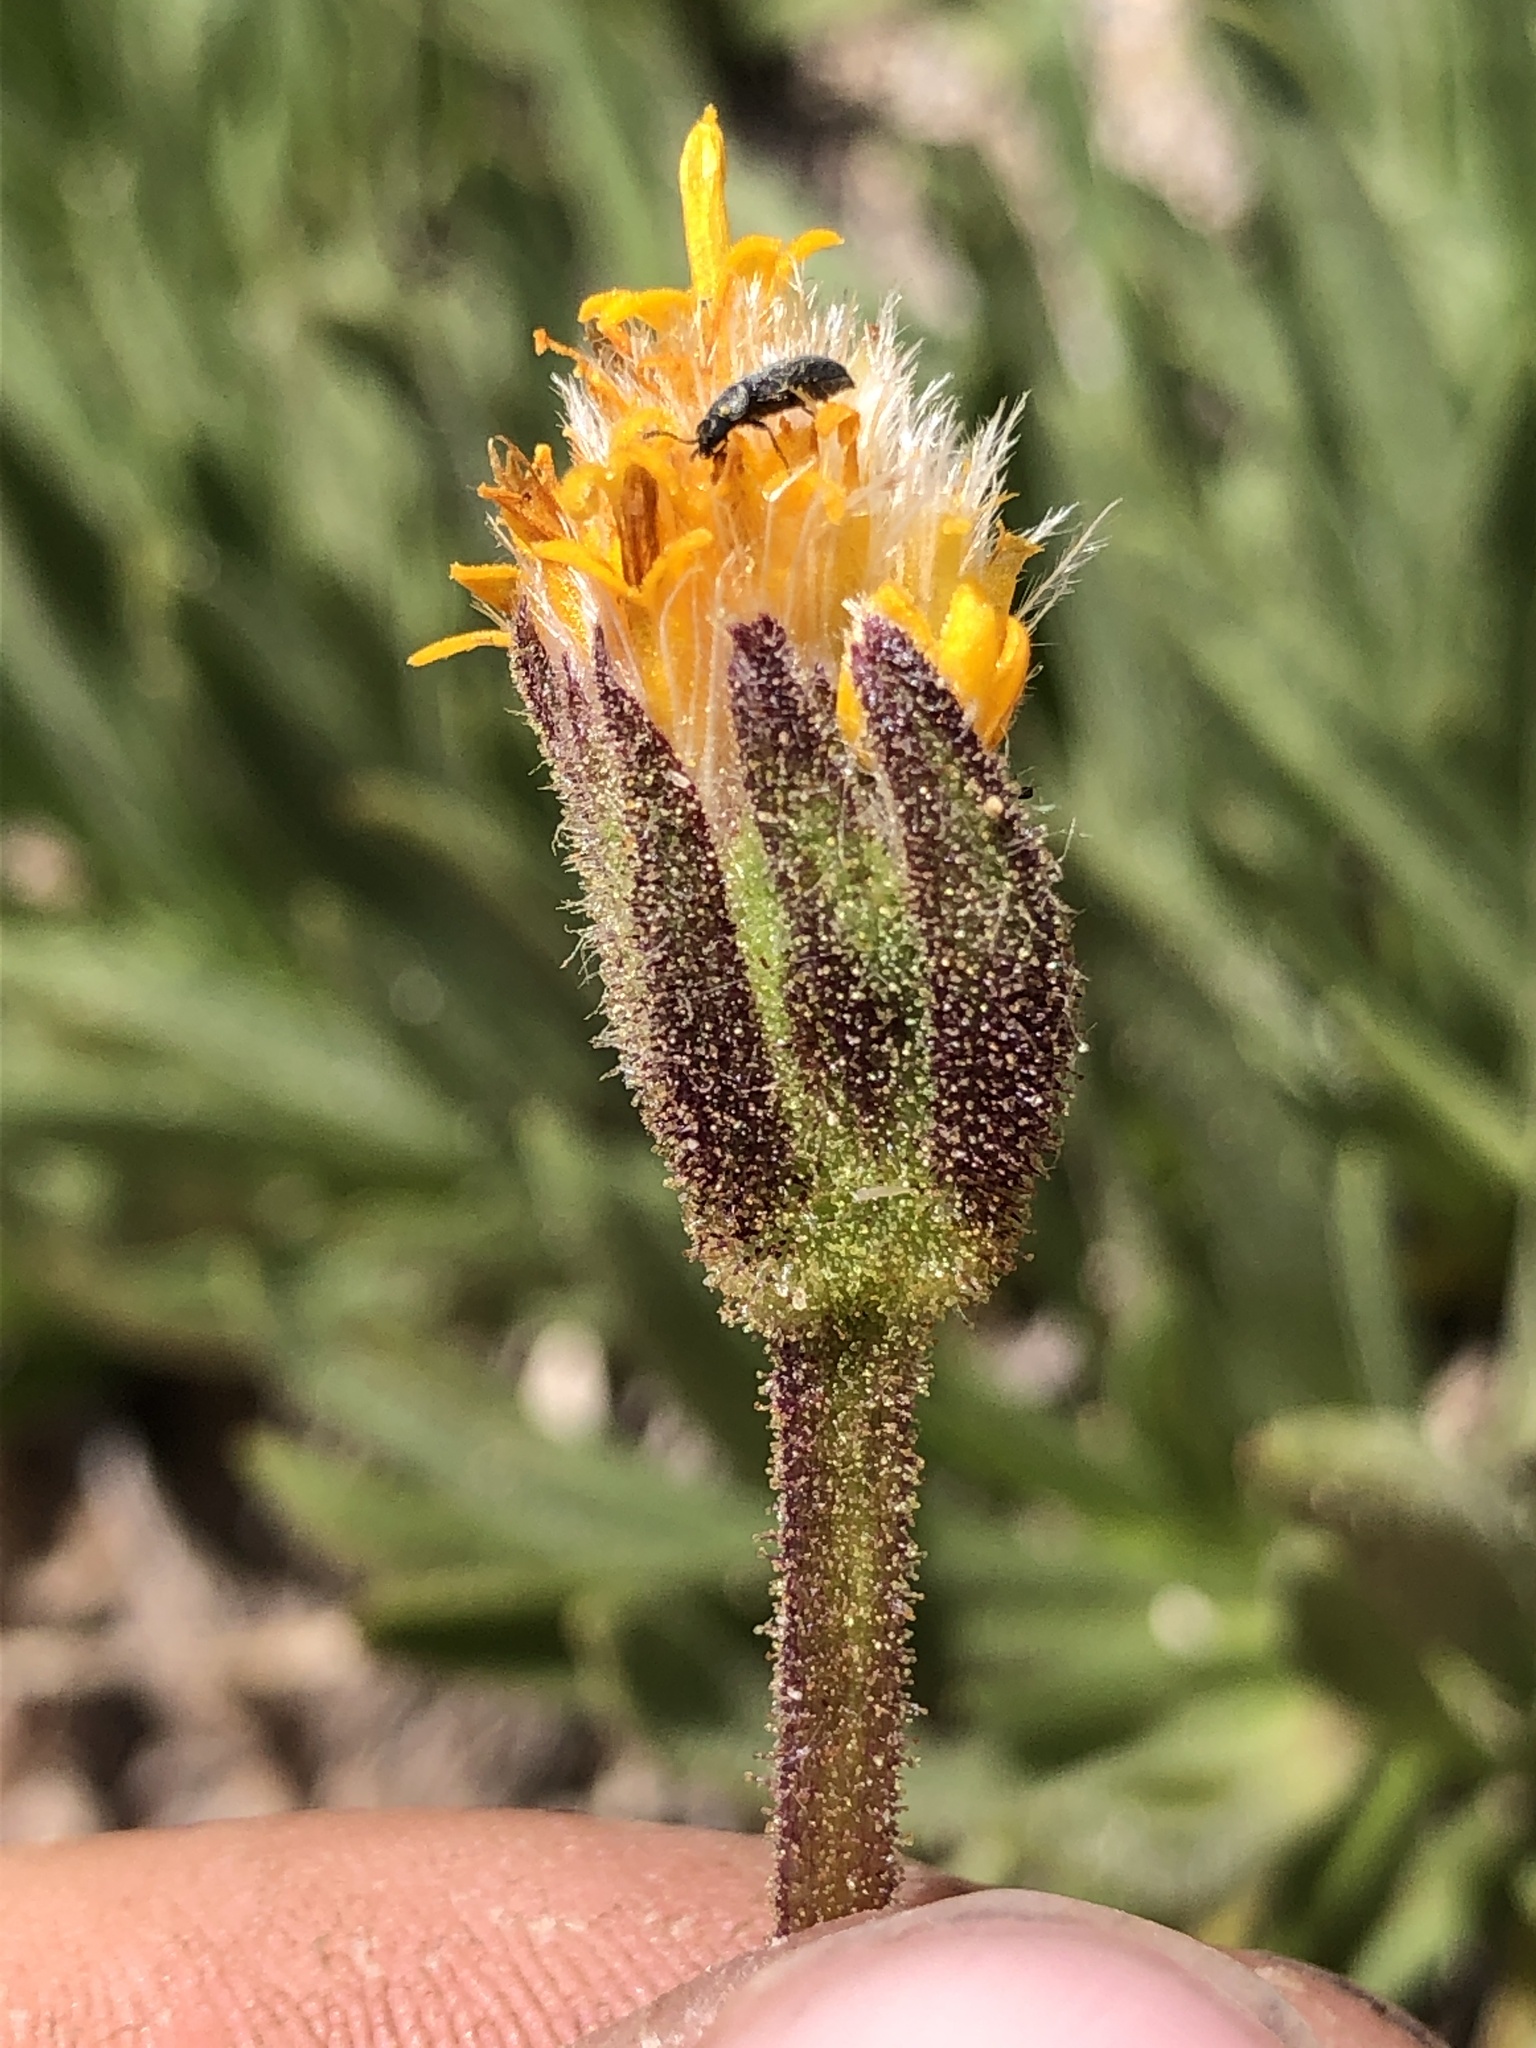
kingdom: Plantae
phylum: Tracheophyta
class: Magnoliopsida
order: Asterales
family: Asteraceae
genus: Raillardella
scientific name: Raillardella scaposa
